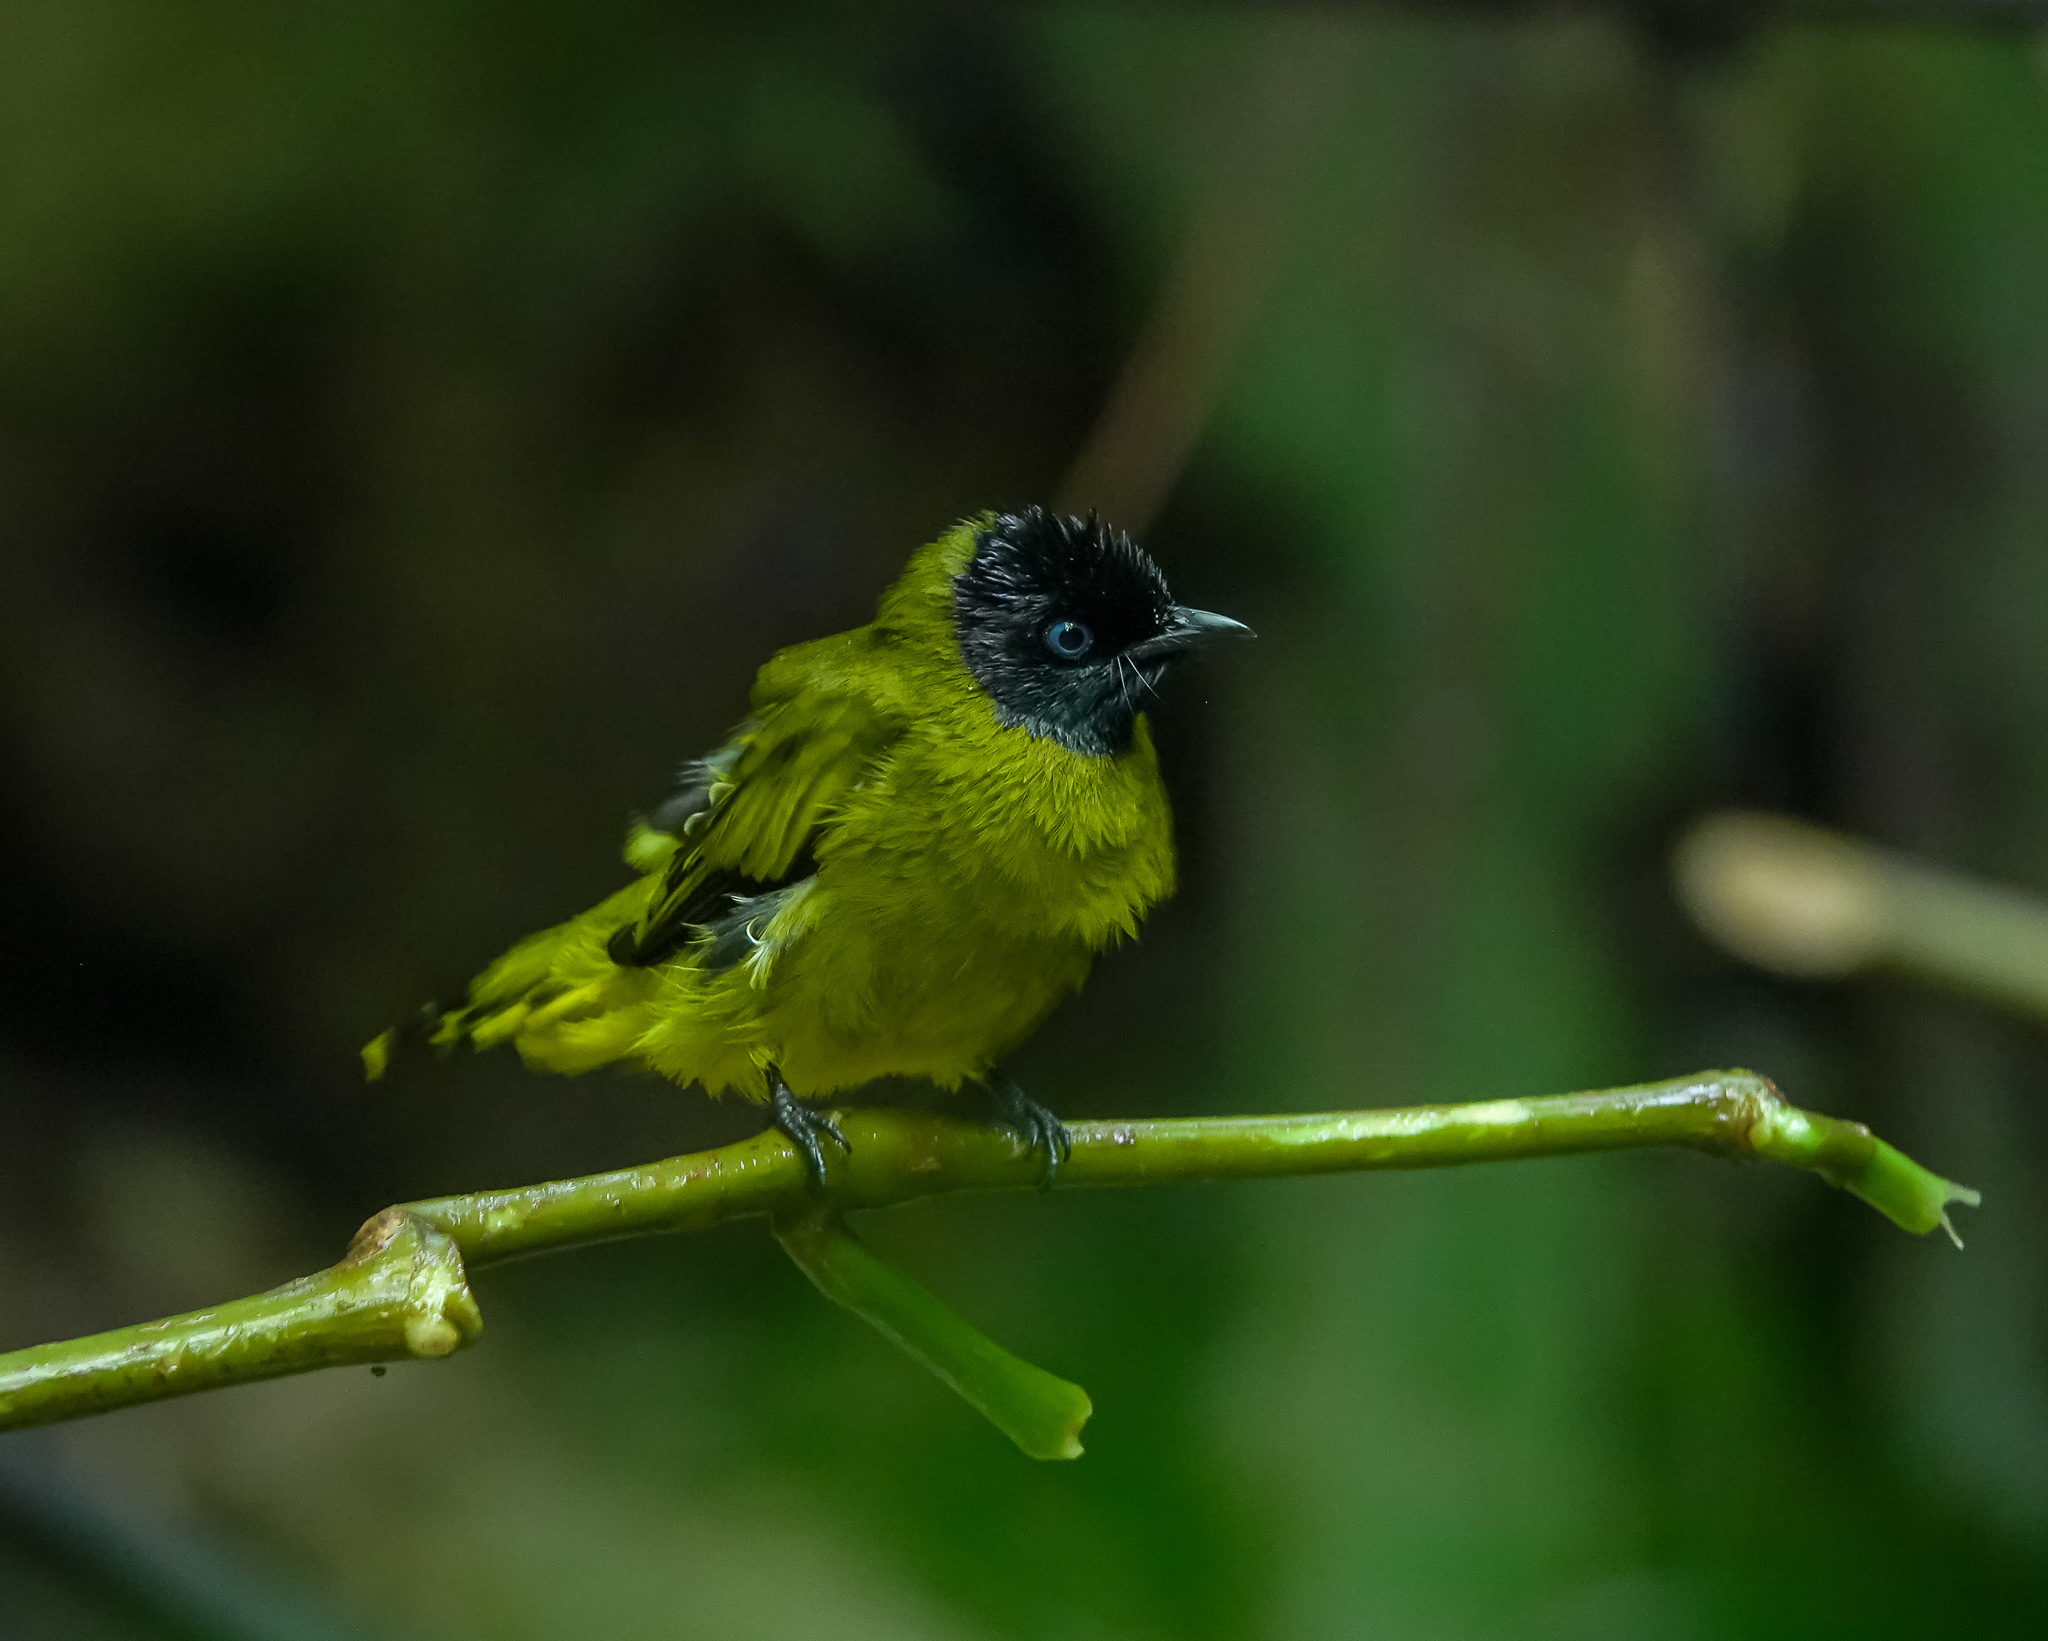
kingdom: Animalia
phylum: Chordata
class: Aves
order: Passeriformes
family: Pycnonotidae
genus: Microtarsus
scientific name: Microtarsus
